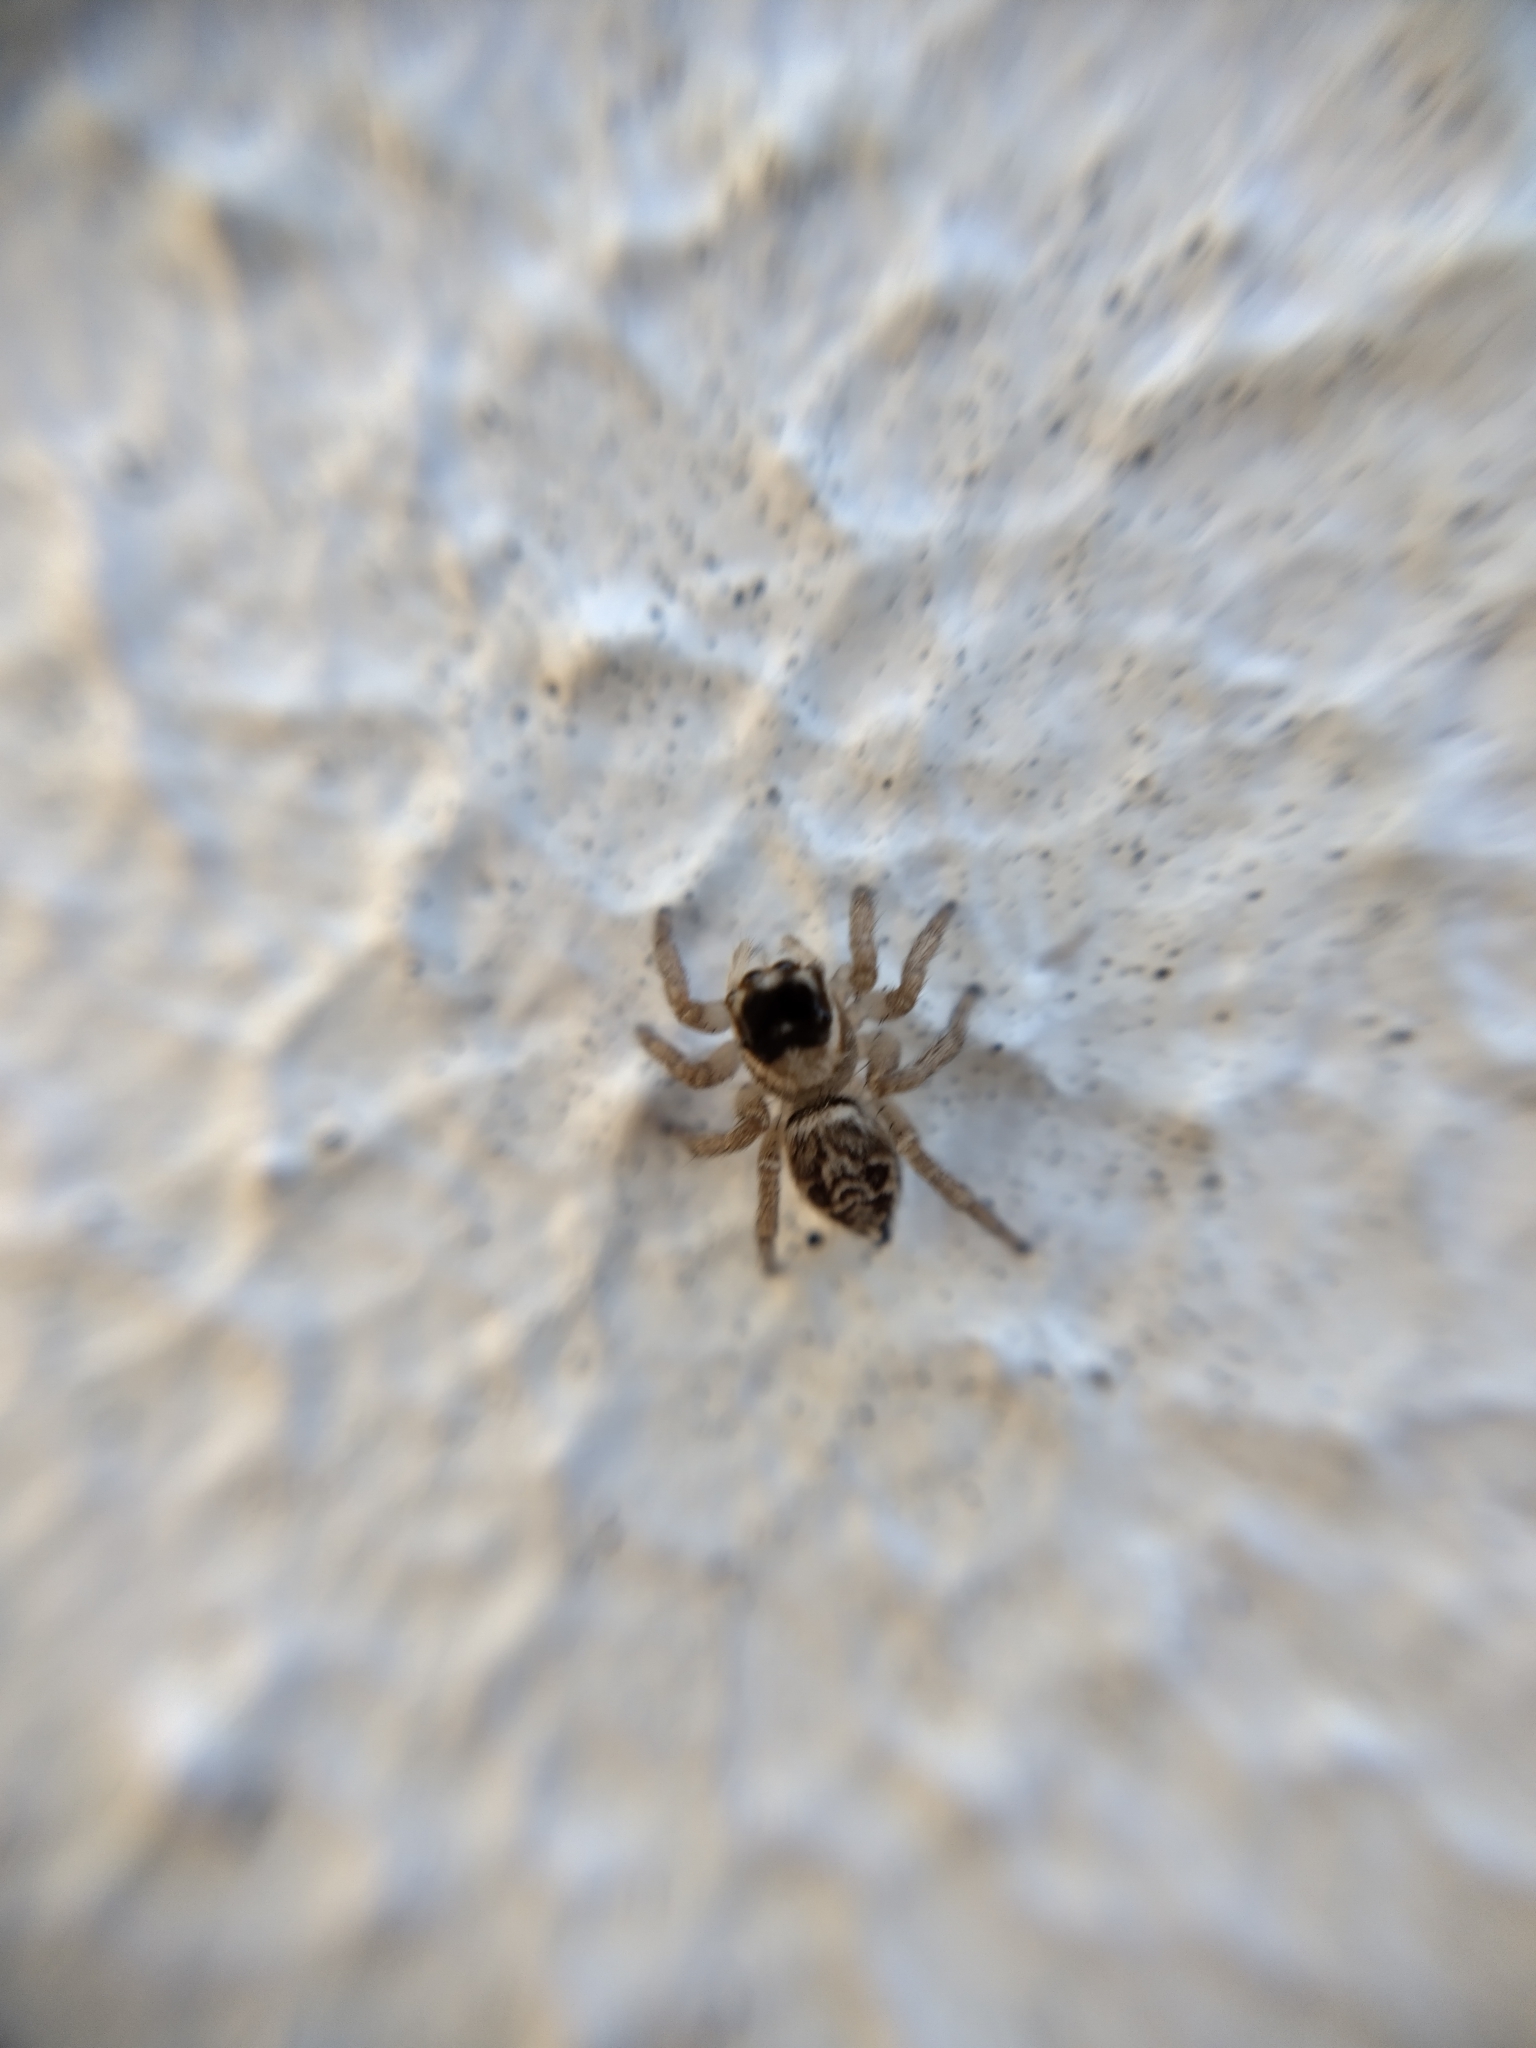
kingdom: Animalia
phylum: Arthropoda
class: Arachnida
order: Araneae
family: Salticidae
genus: Maratus
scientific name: Maratus griseus
